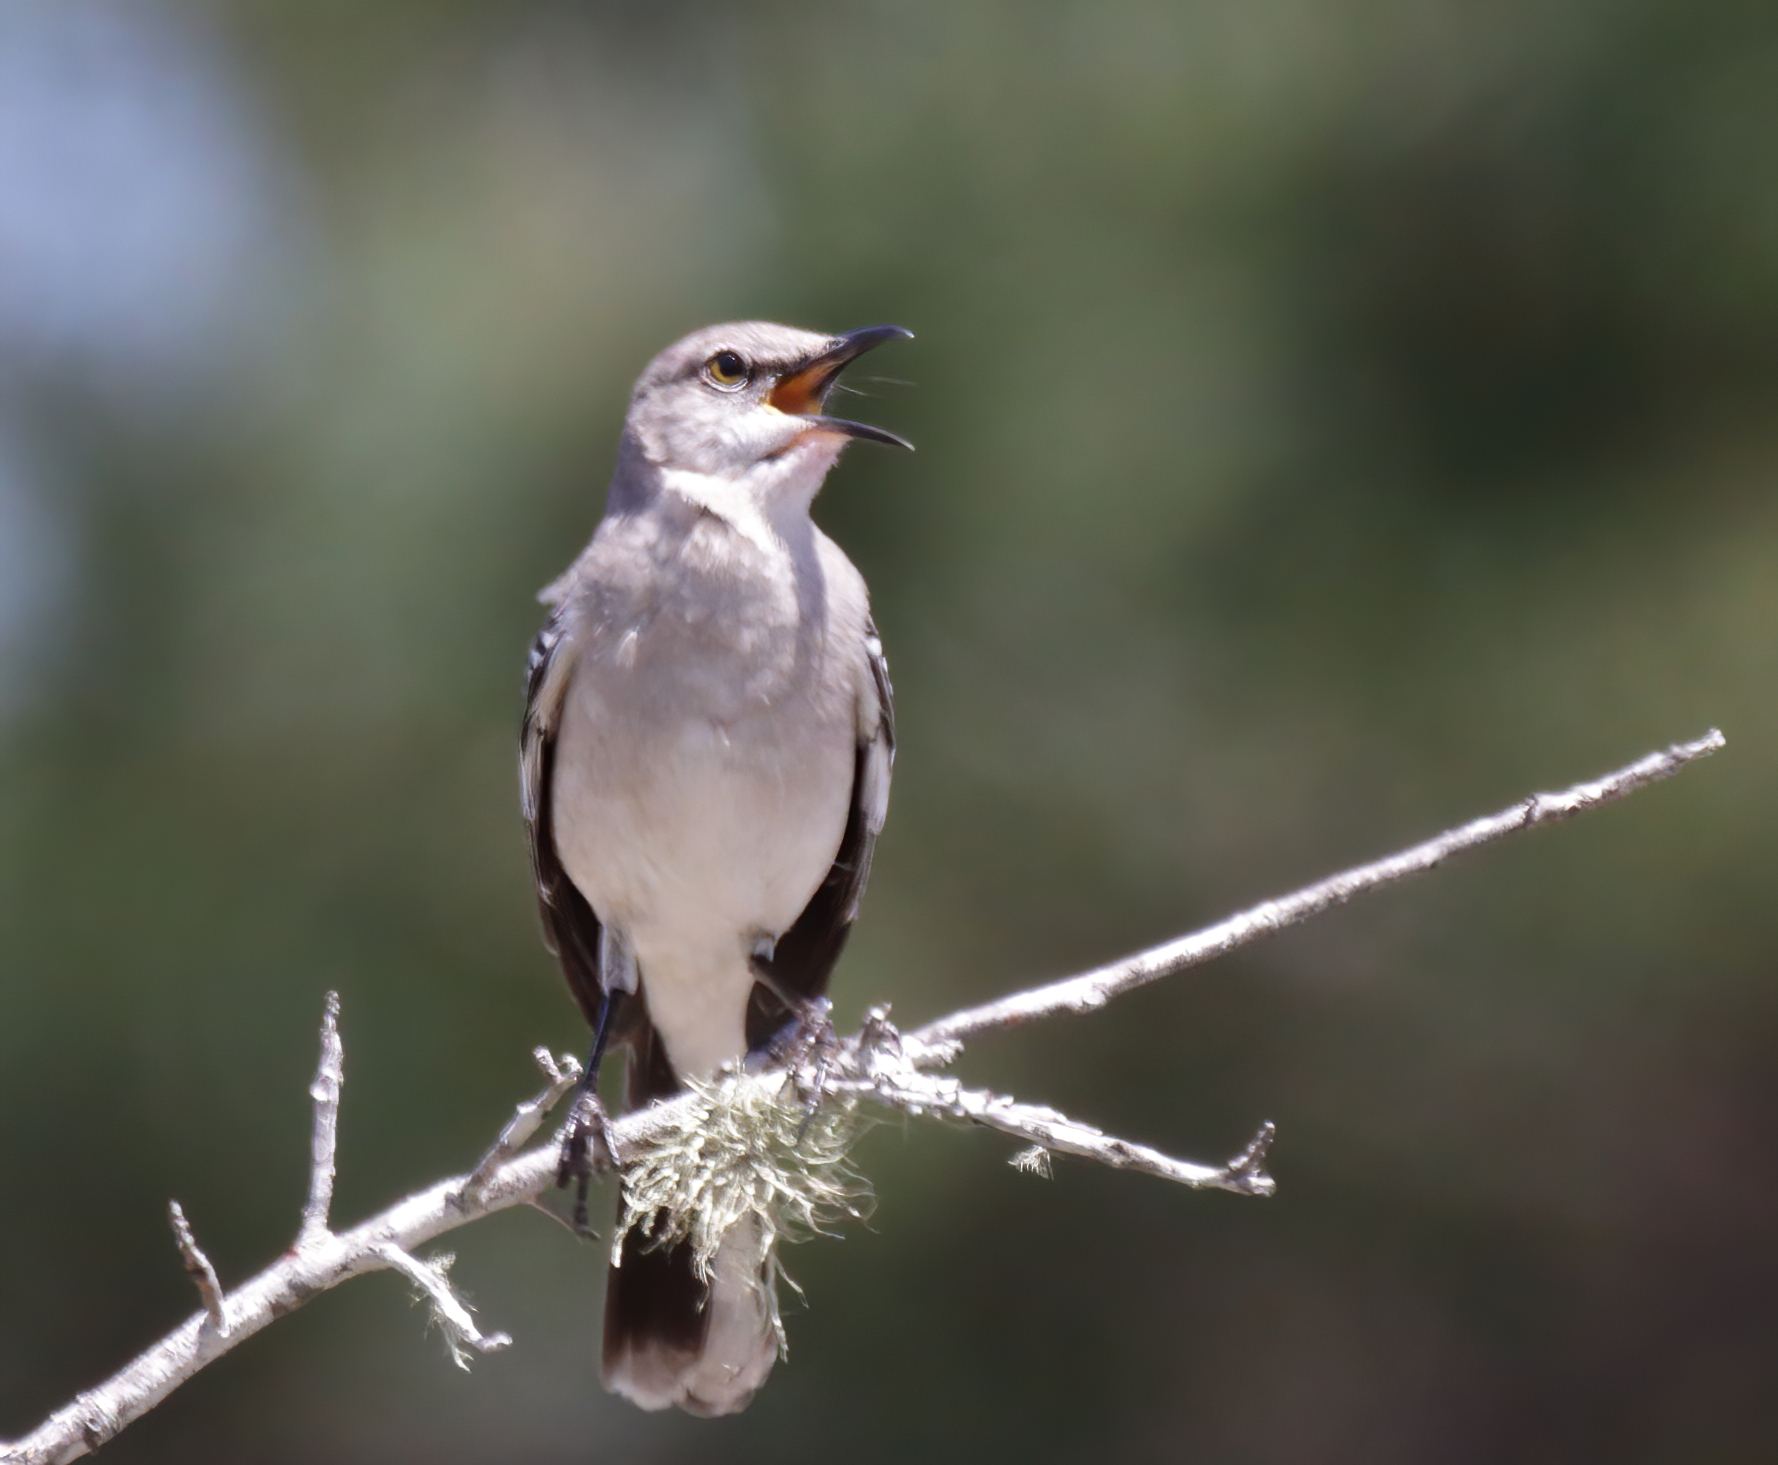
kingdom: Animalia
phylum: Chordata
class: Aves
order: Passeriformes
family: Mimidae
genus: Mimus
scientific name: Mimus polyglottos
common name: Northern mockingbird
